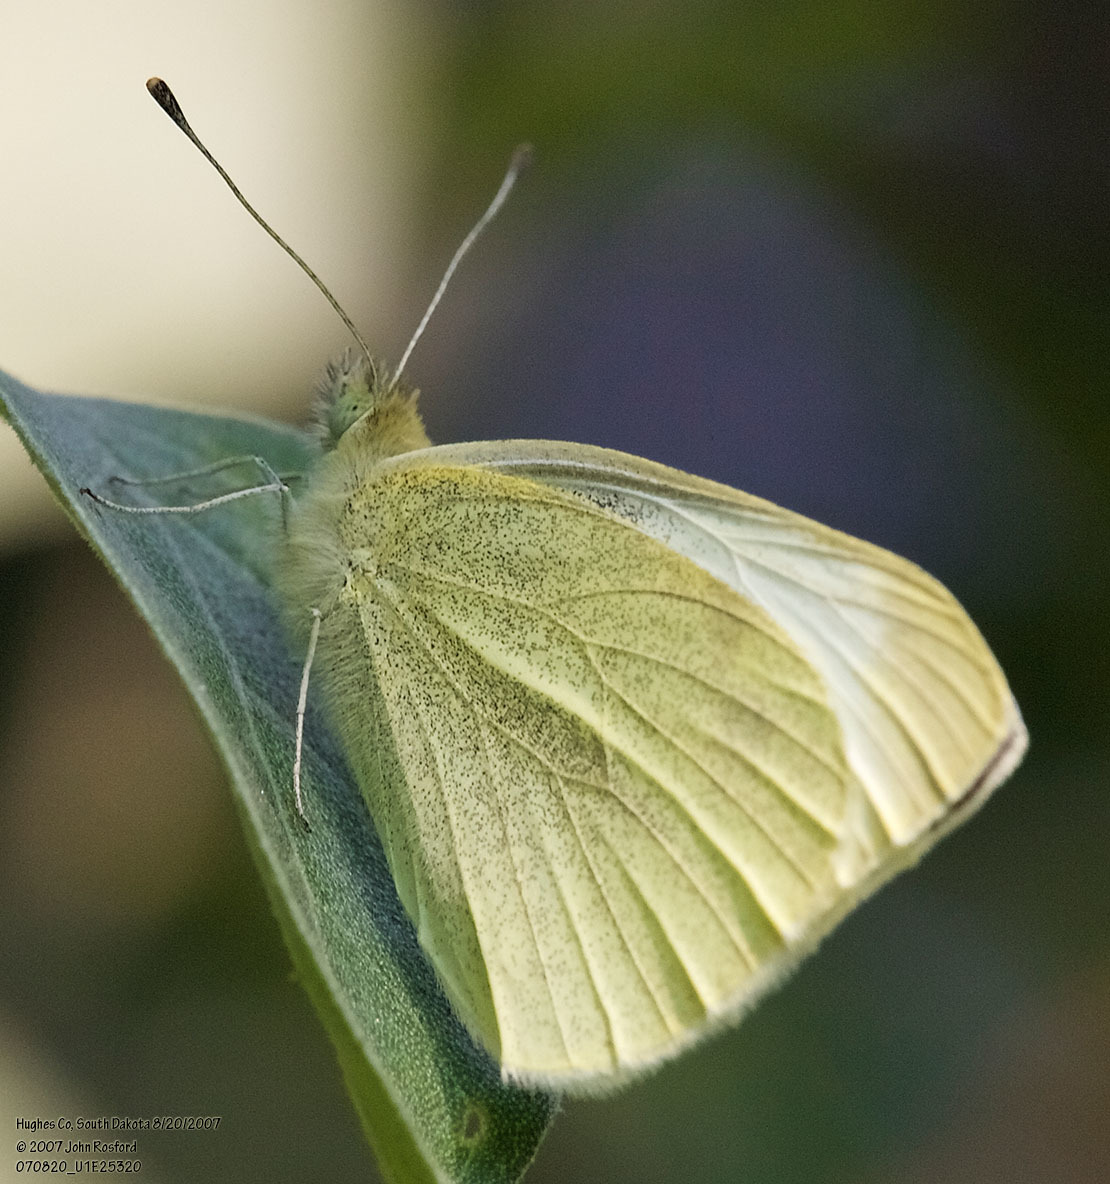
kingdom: Animalia
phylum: Arthropoda
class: Insecta
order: Lepidoptera
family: Pieridae
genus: Pieris
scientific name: Pieris rapae
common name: Small white
